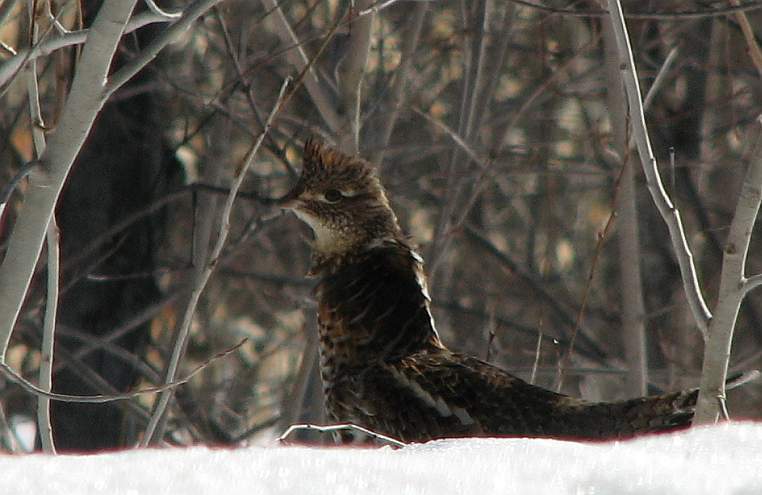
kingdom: Animalia
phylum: Chordata
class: Aves
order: Galliformes
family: Phasianidae
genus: Bonasa
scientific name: Bonasa umbellus
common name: Ruffed grouse
